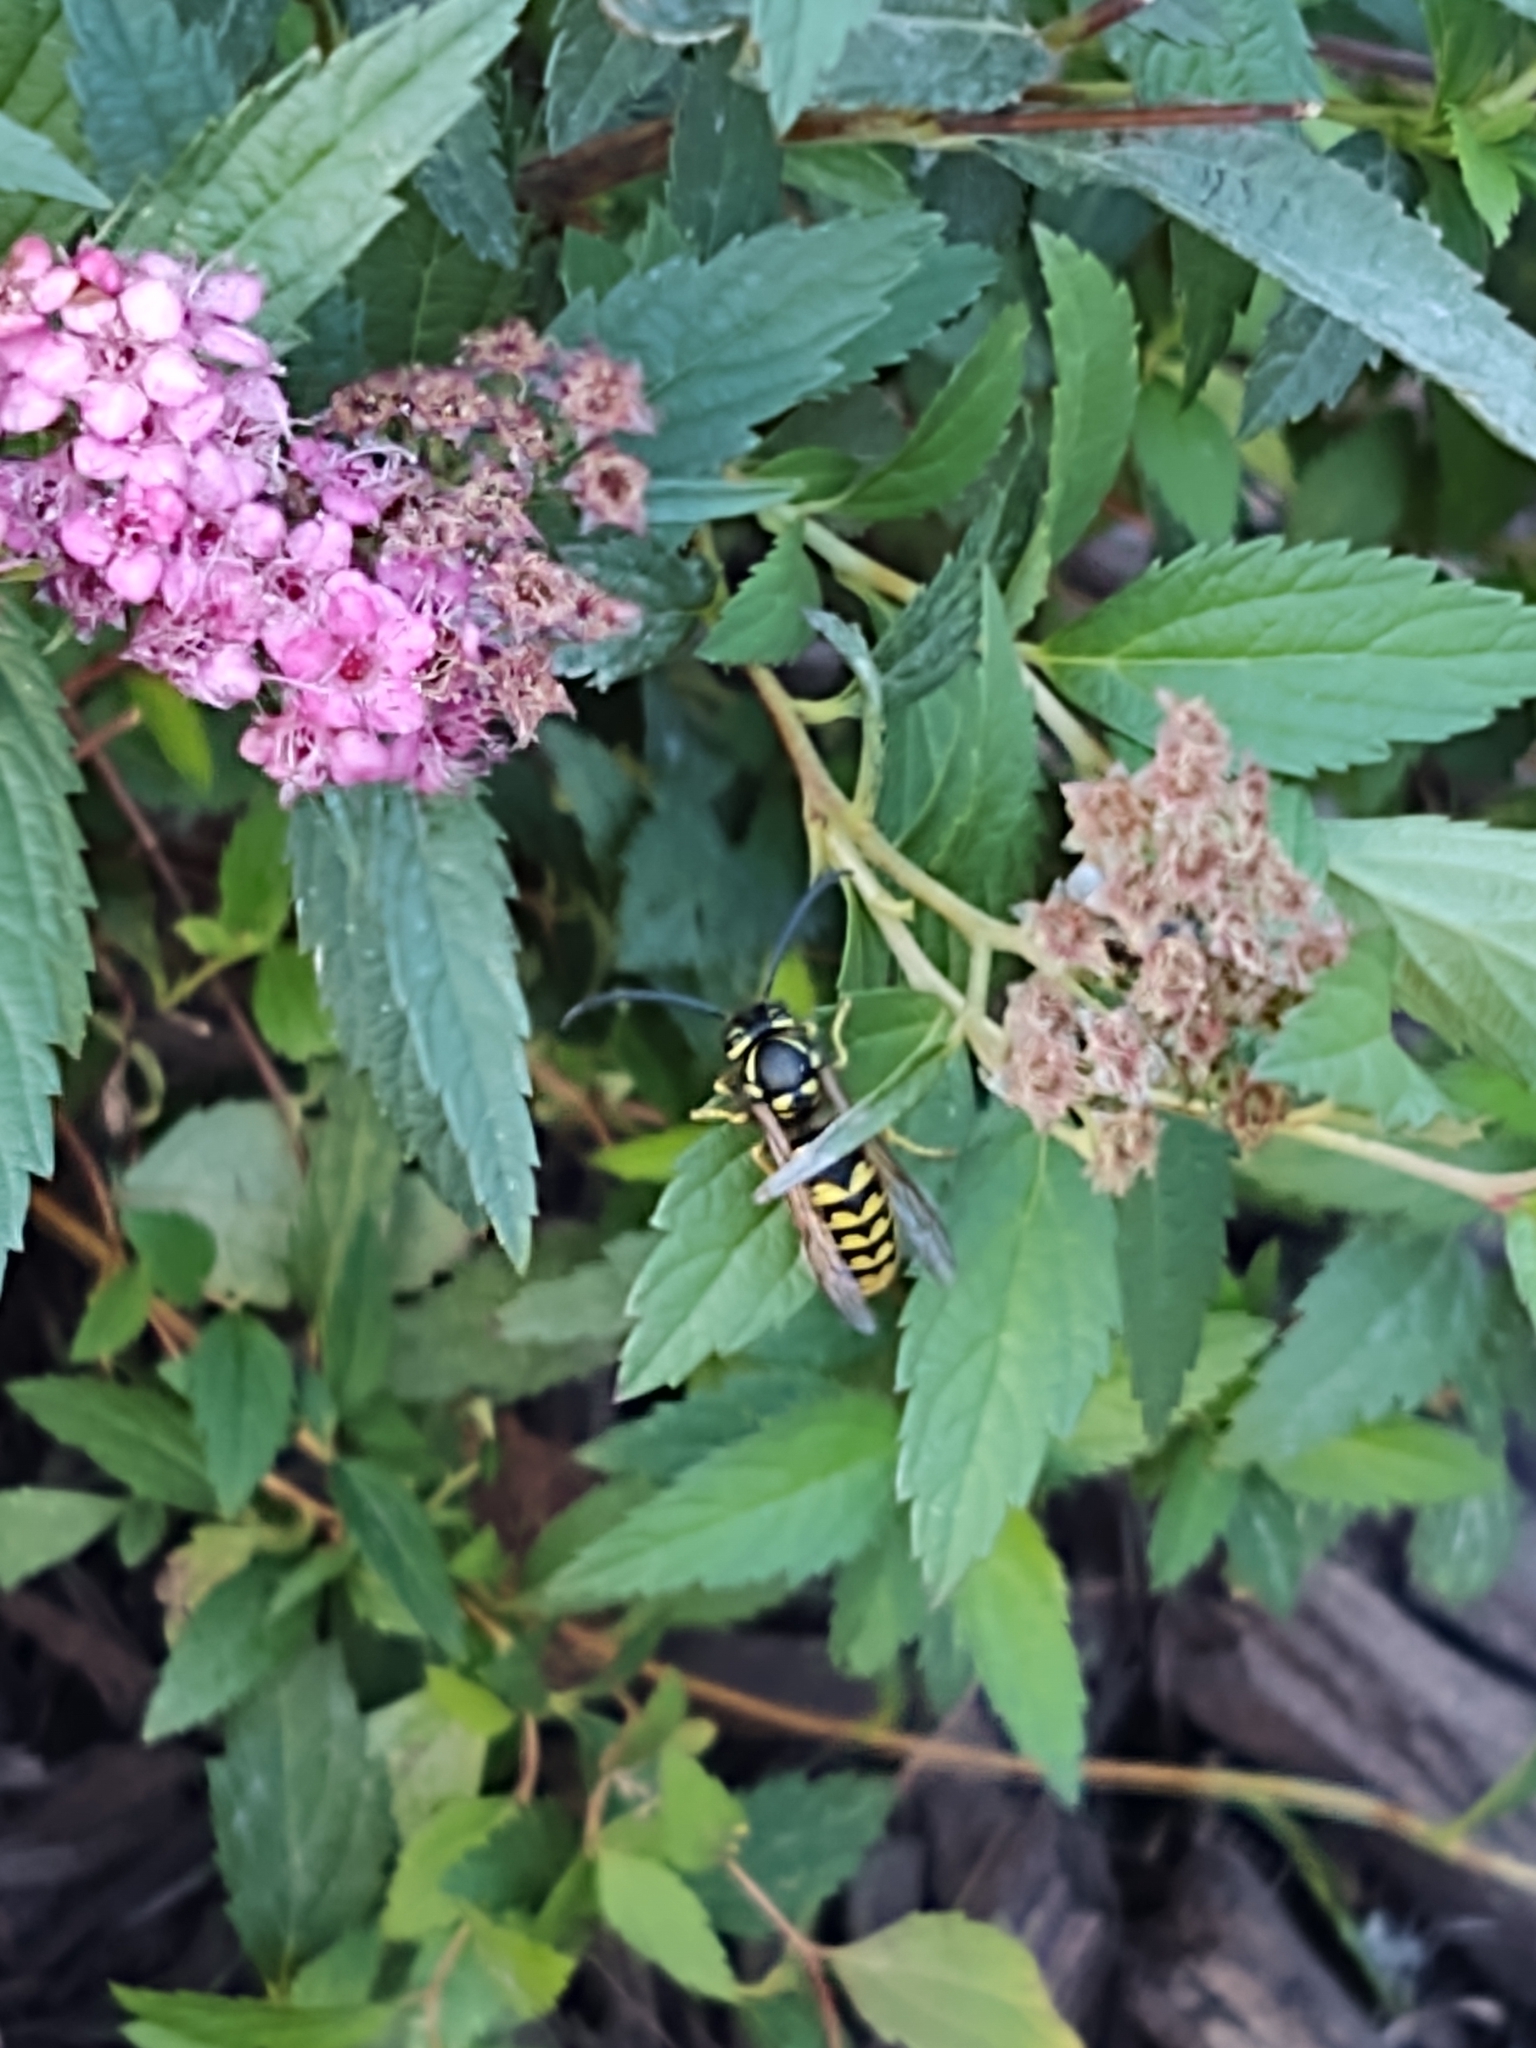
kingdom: Animalia
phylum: Arthropoda
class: Insecta
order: Hymenoptera
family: Vespidae
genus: Vespula
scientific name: Vespula pensylvanica
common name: Western yellowjacket
